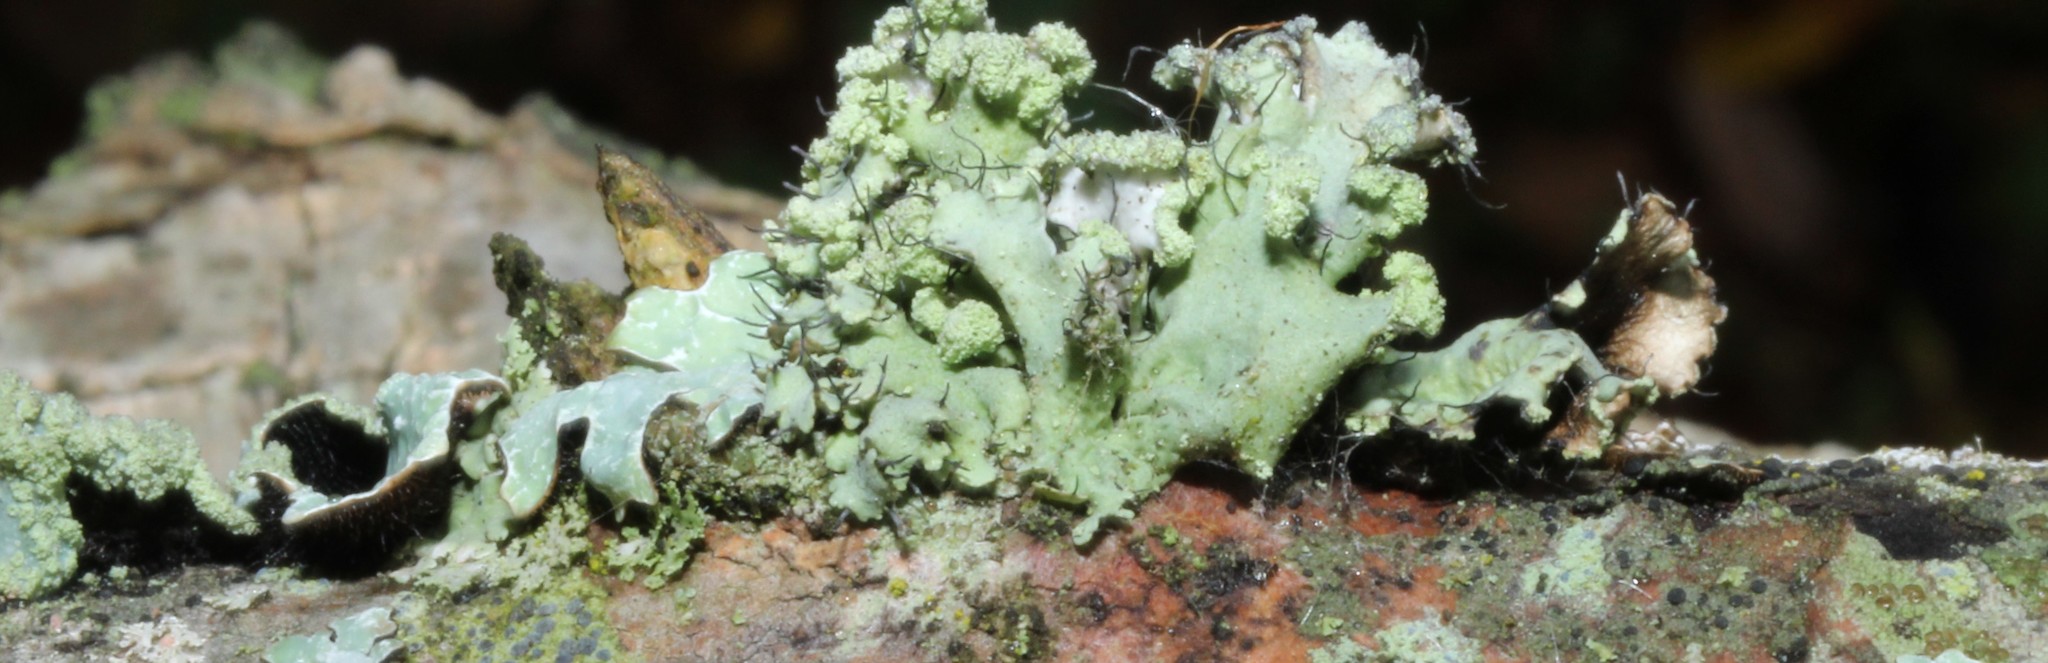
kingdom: Fungi
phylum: Ascomycota
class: Lecanoromycetes
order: Lecanorales
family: Parmeliaceae
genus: Parmotrema
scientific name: Parmotrema hypotropum
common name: Powdered ruffle lichen
